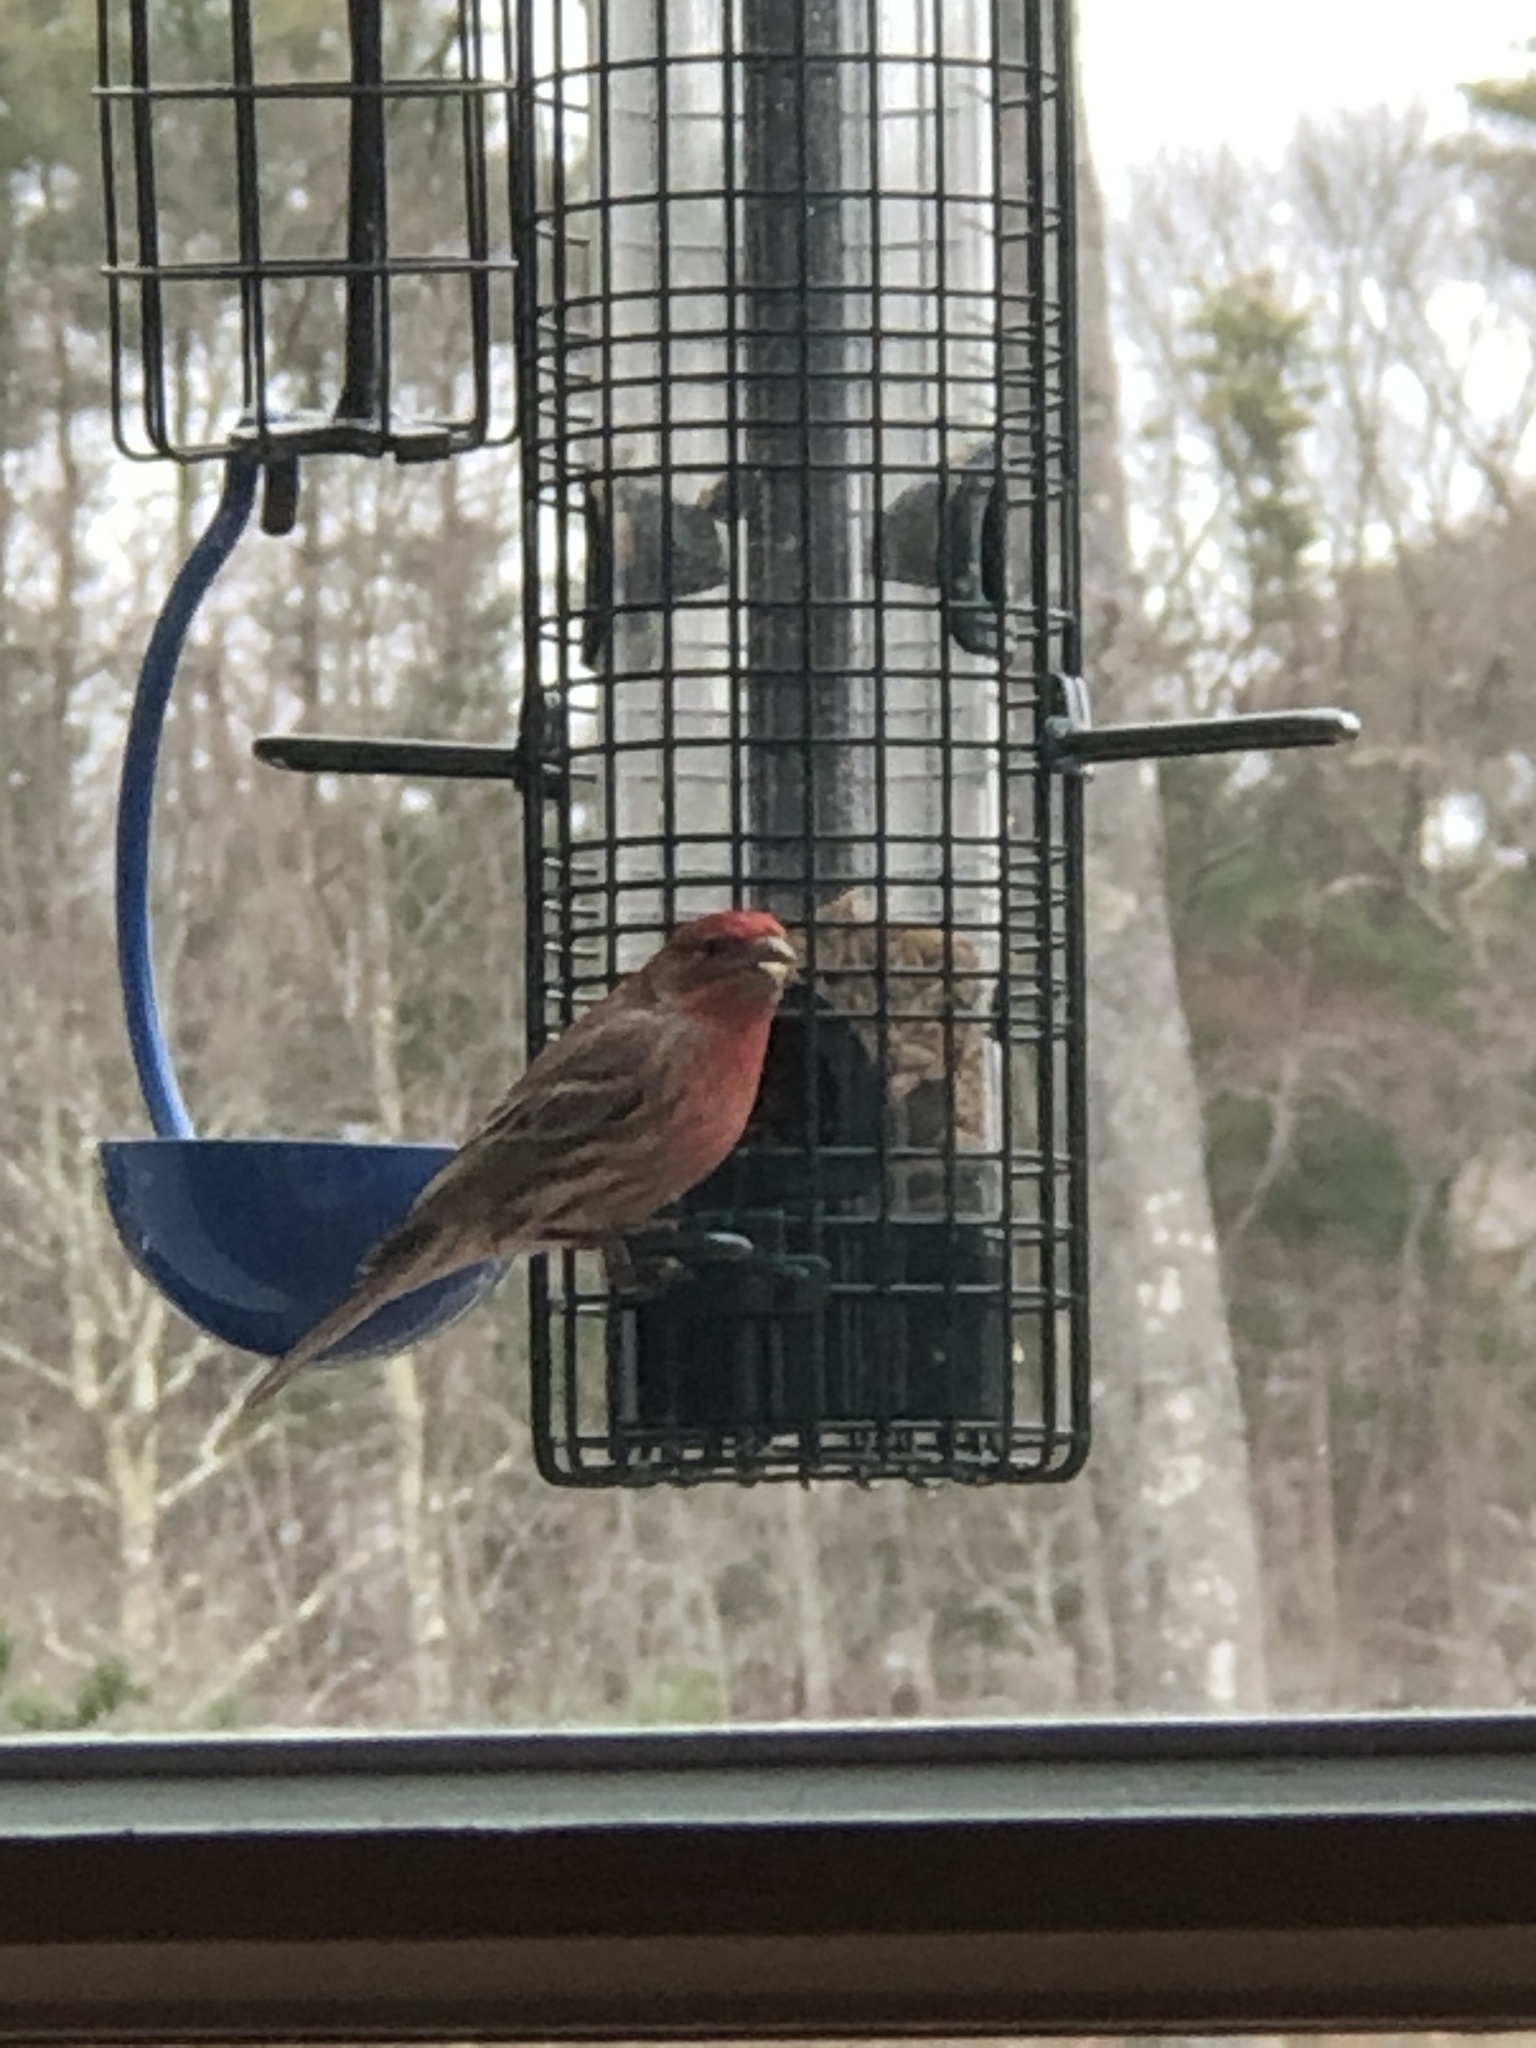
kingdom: Animalia
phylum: Chordata
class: Aves
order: Passeriformes
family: Fringillidae
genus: Haemorhous
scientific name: Haemorhous mexicanus
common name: House finch
